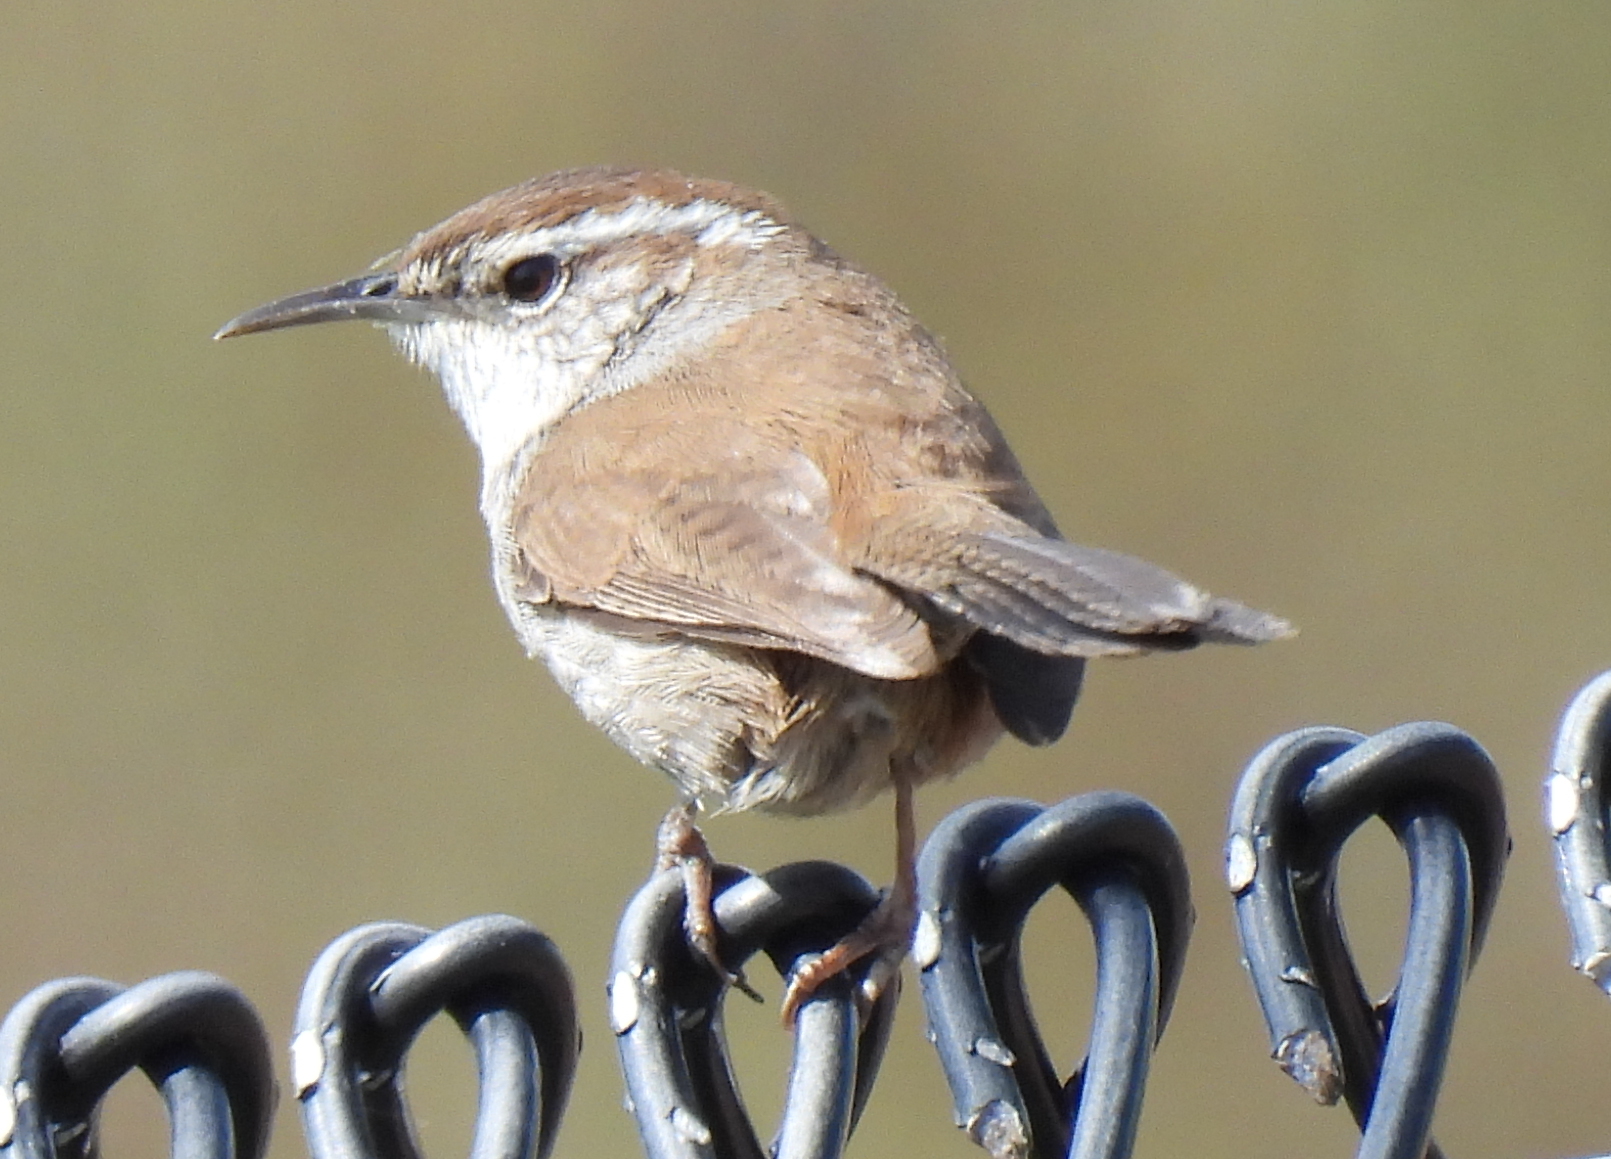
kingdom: Animalia
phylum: Chordata
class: Aves
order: Passeriformes
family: Troglodytidae
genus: Thryomanes
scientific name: Thryomanes bewickii
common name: Bewick's wren
